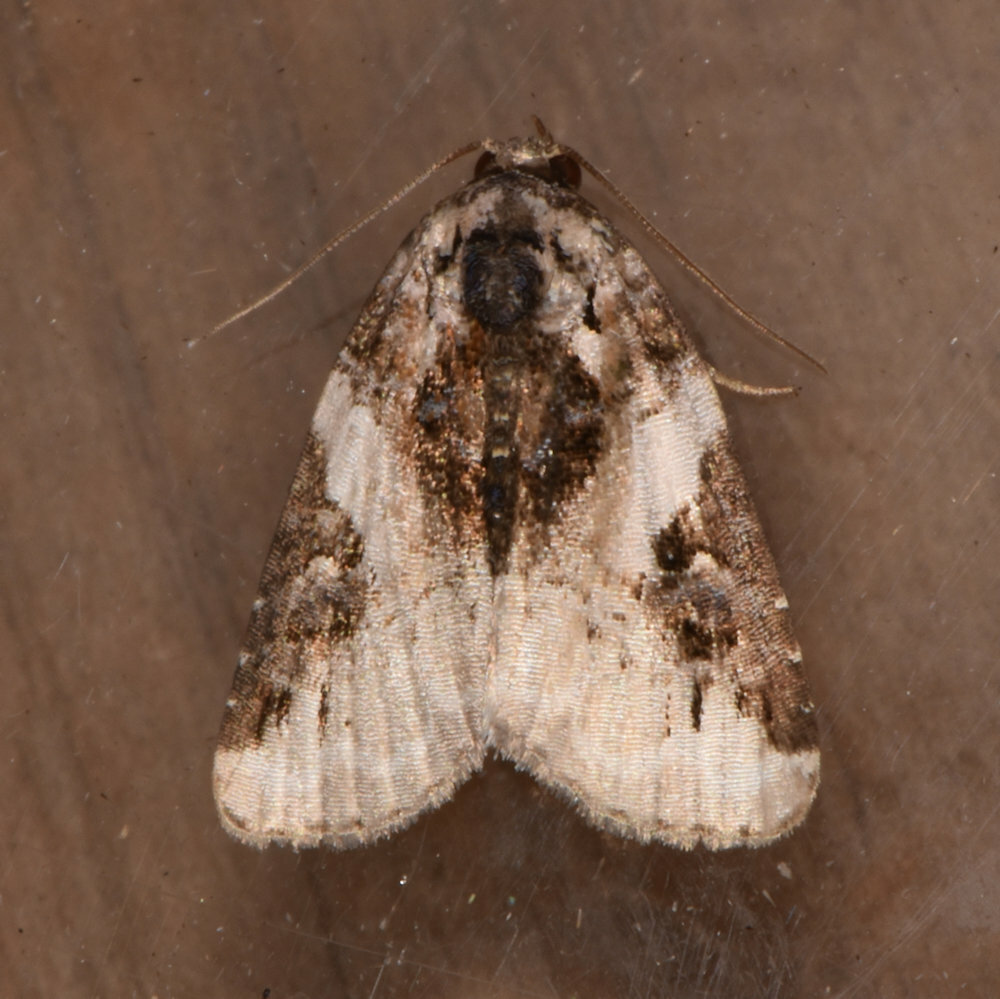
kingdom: Animalia
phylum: Arthropoda
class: Insecta
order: Lepidoptera
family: Noctuidae
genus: Pseudeustrotia
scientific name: Pseudeustrotia carneola
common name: Pink-barred lithacodia moth
